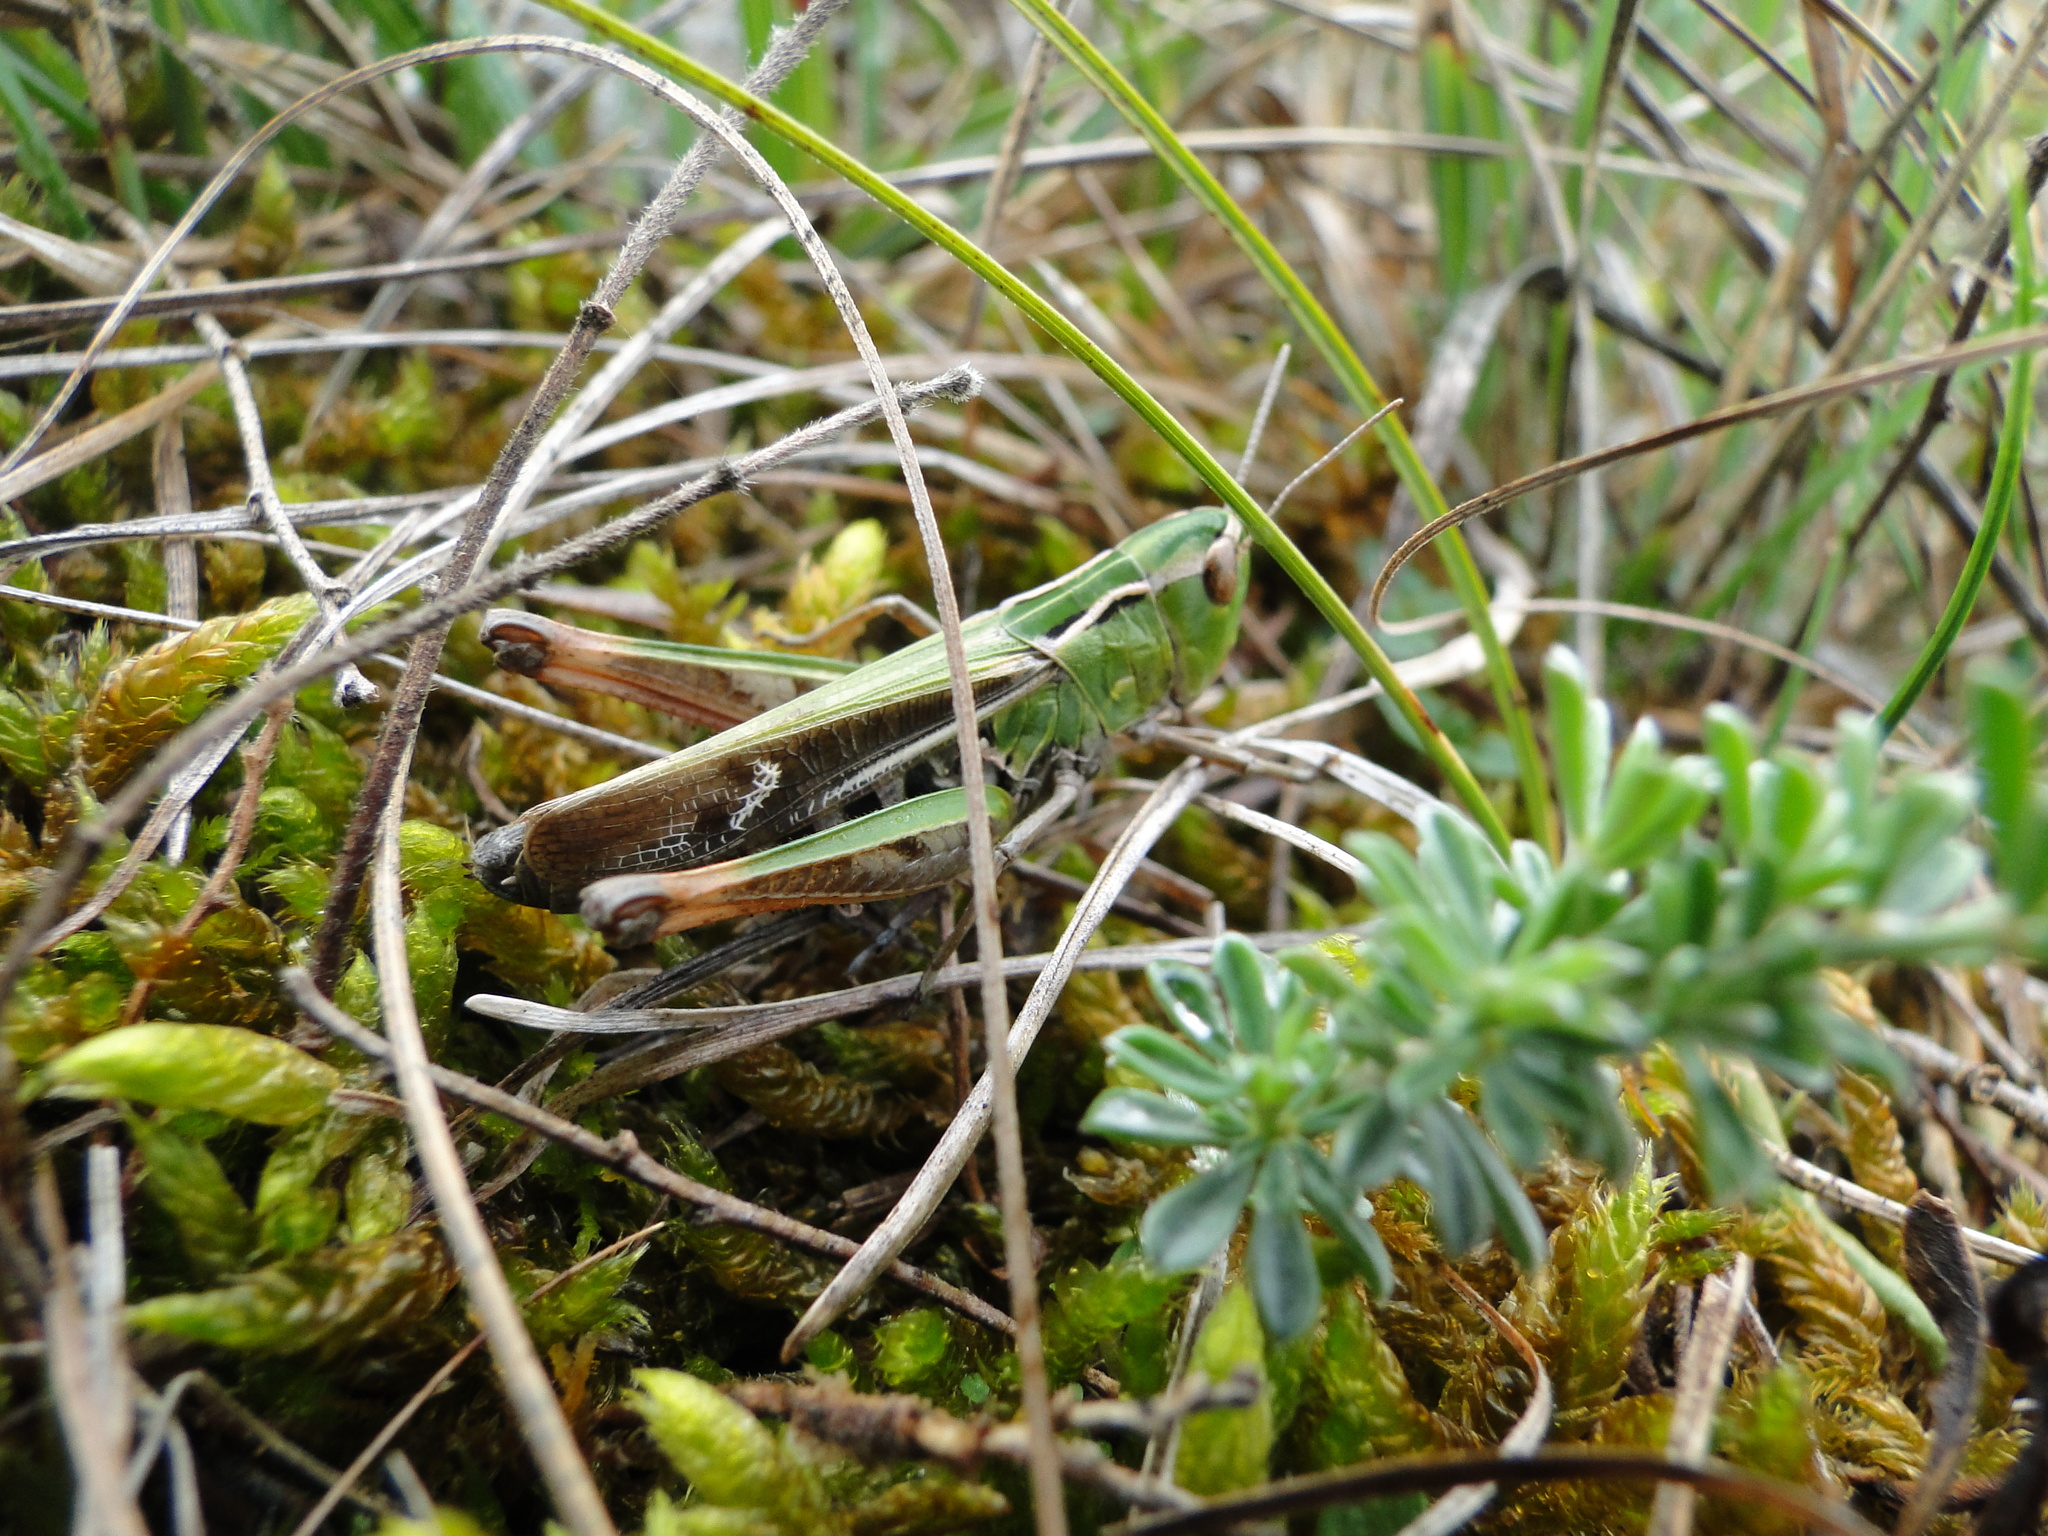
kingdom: Animalia
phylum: Arthropoda
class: Insecta
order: Orthoptera
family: Acrididae
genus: Stenobothrus
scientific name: Stenobothrus lineatus
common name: Stripe-winged grasshopper
